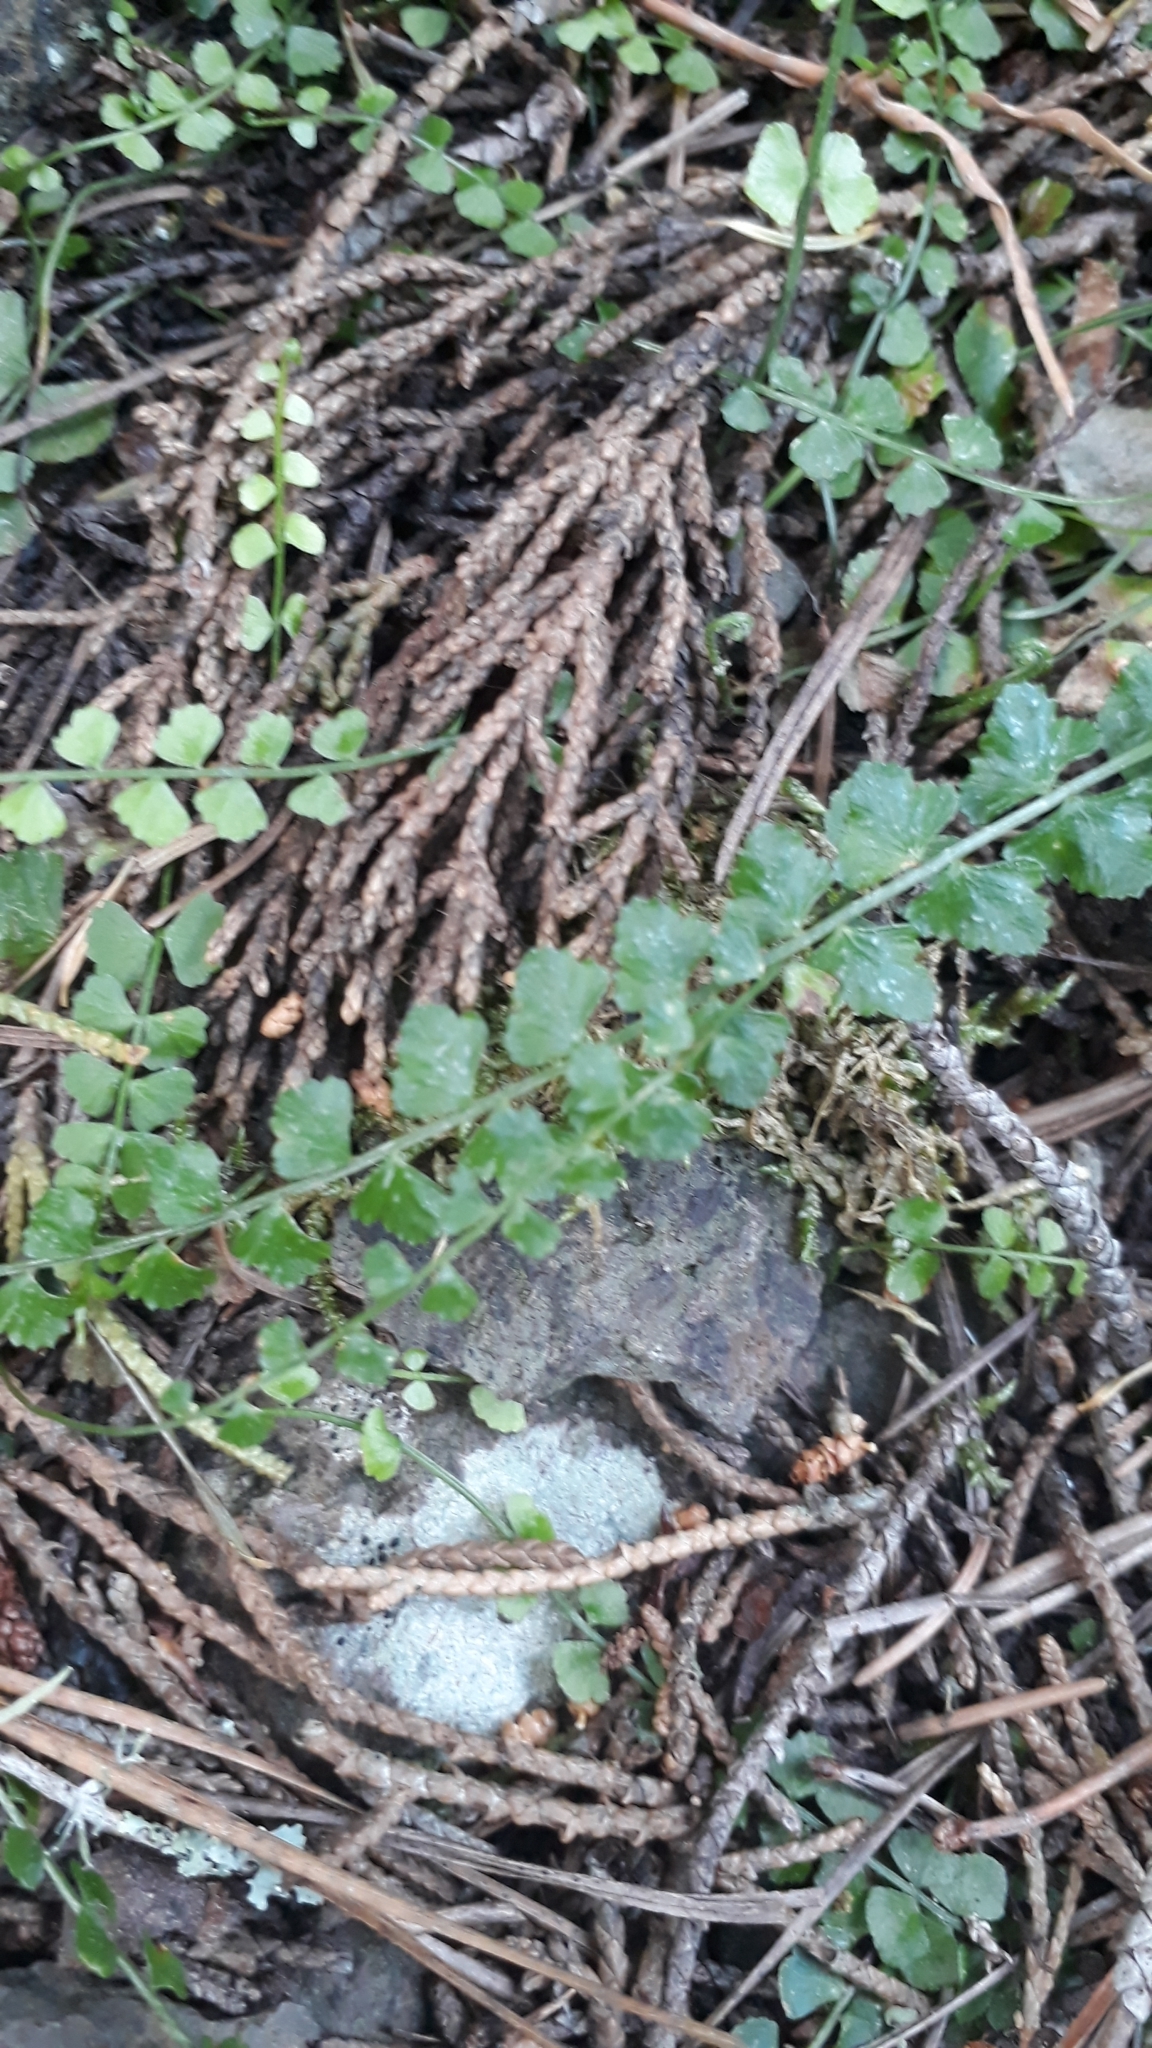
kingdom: Plantae
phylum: Tracheophyta
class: Polypodiopsida
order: Polypodiales
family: Aspleniaceae
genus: Asplenium
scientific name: Asplenium flabellifolium
